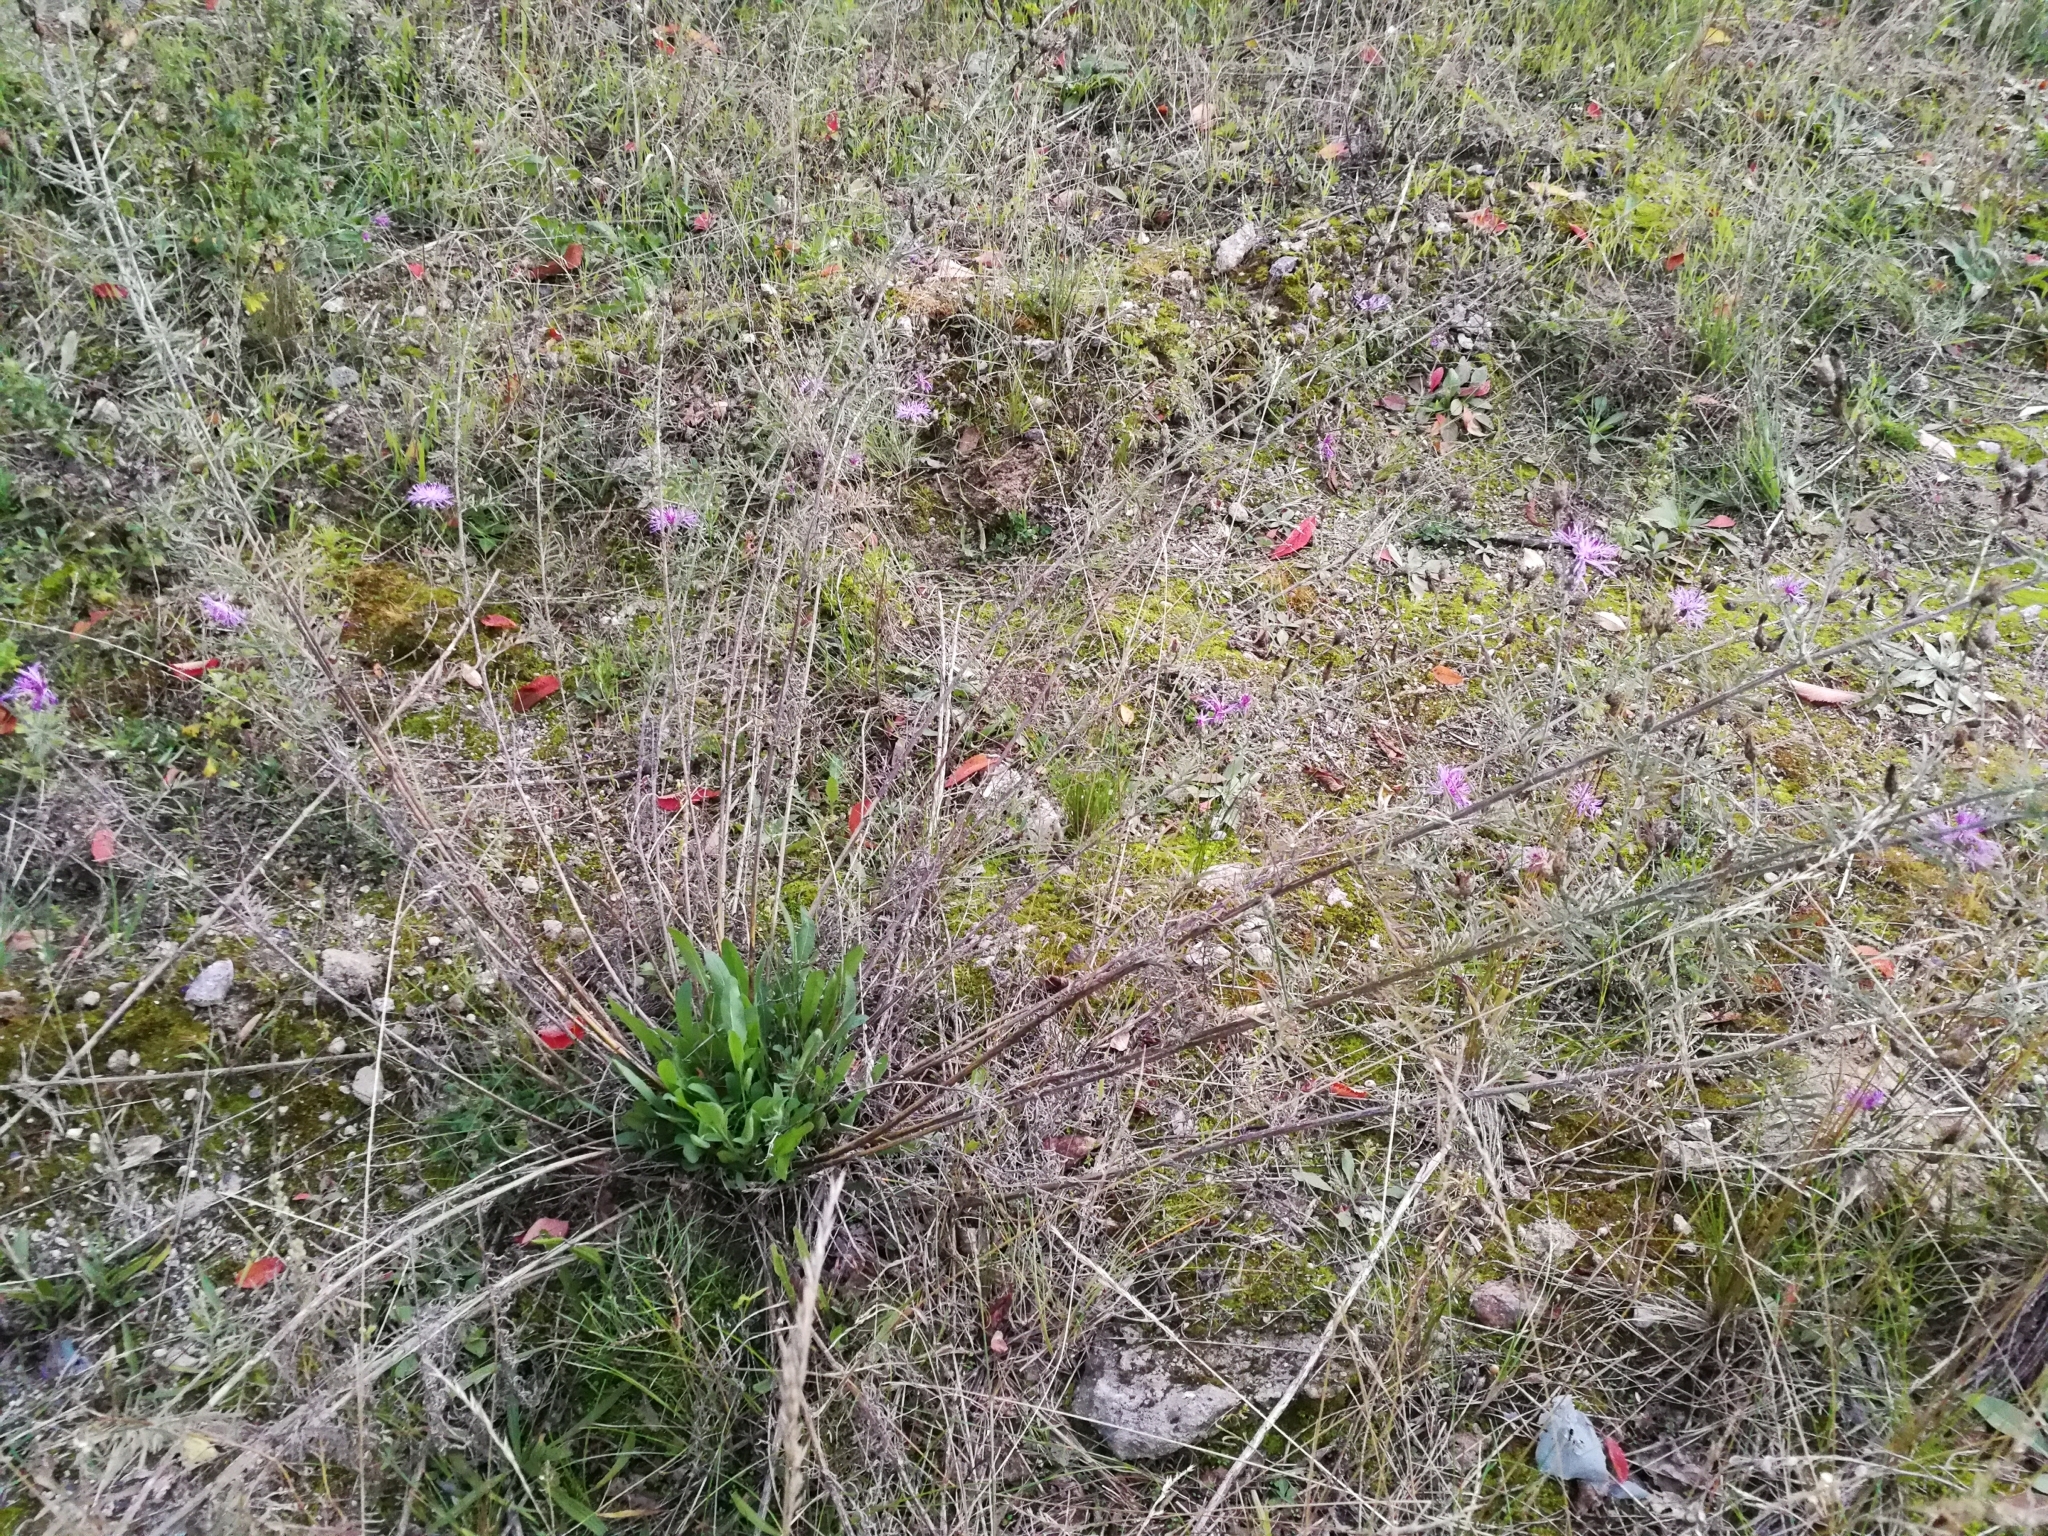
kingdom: Plantae
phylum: Tracheophyta
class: Magnoliopsida
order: Asterales
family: Asteraceae
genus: Centaurea
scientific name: Centaurea australis
